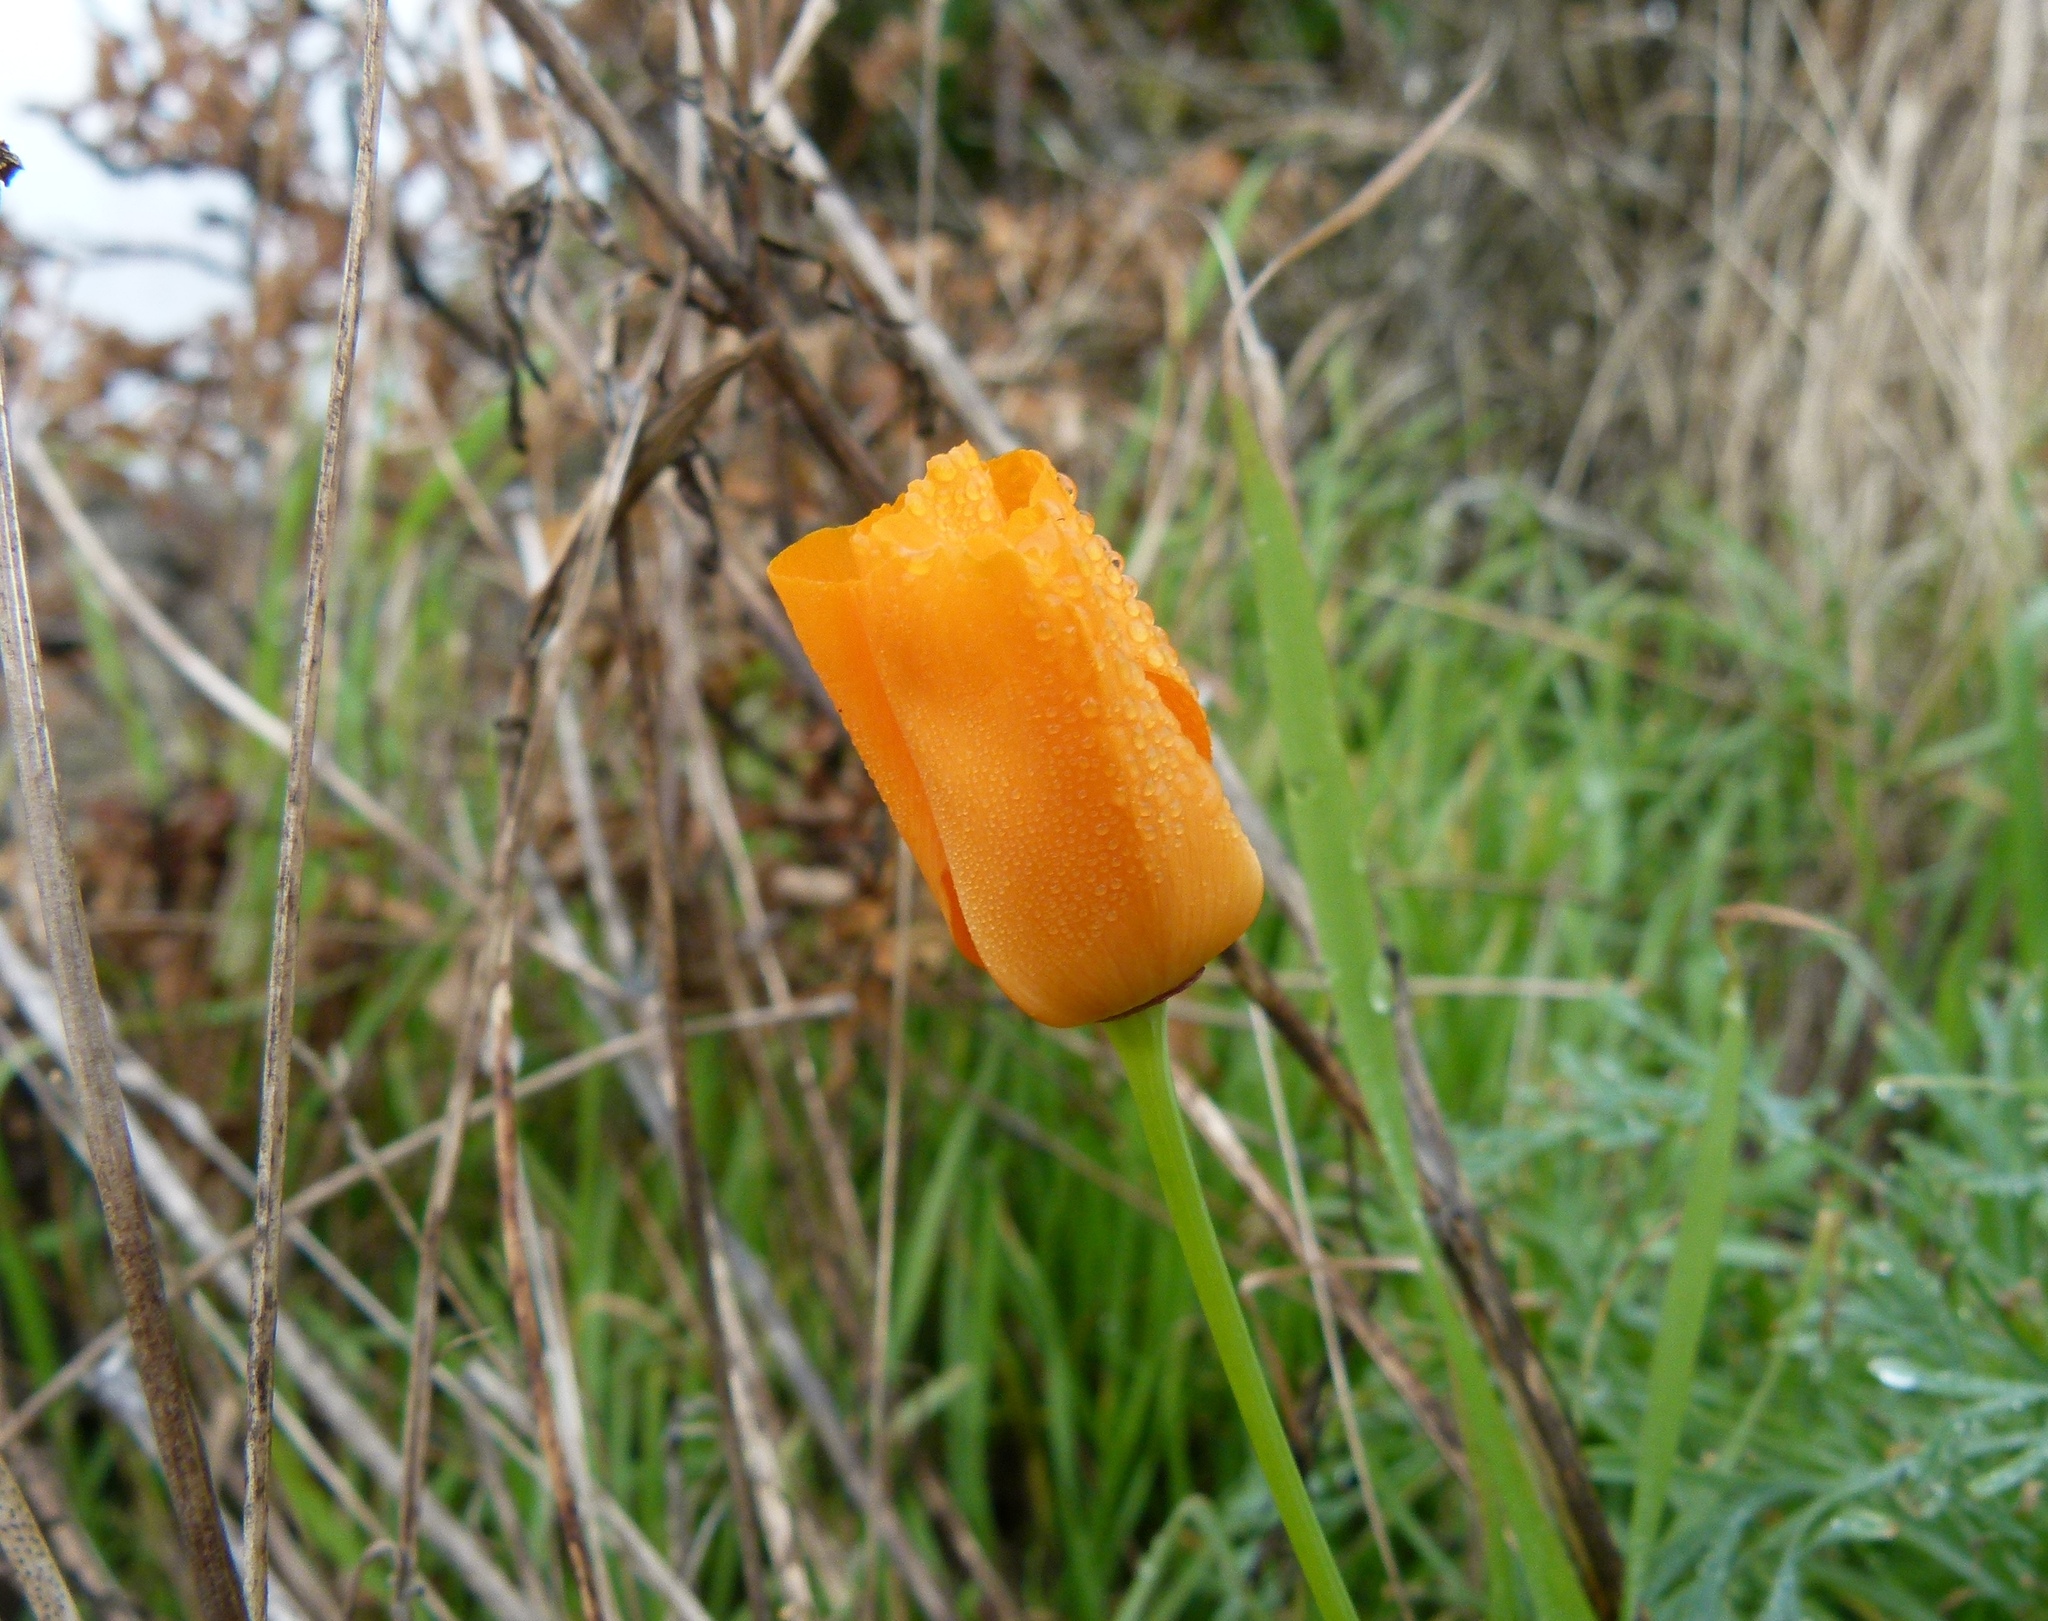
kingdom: Plantae
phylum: Tracheophyta
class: Magnoliopsida
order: Ranunculales
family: Papaveraceae
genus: Eschscholzia
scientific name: Eschscholzia californica
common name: California poppy
